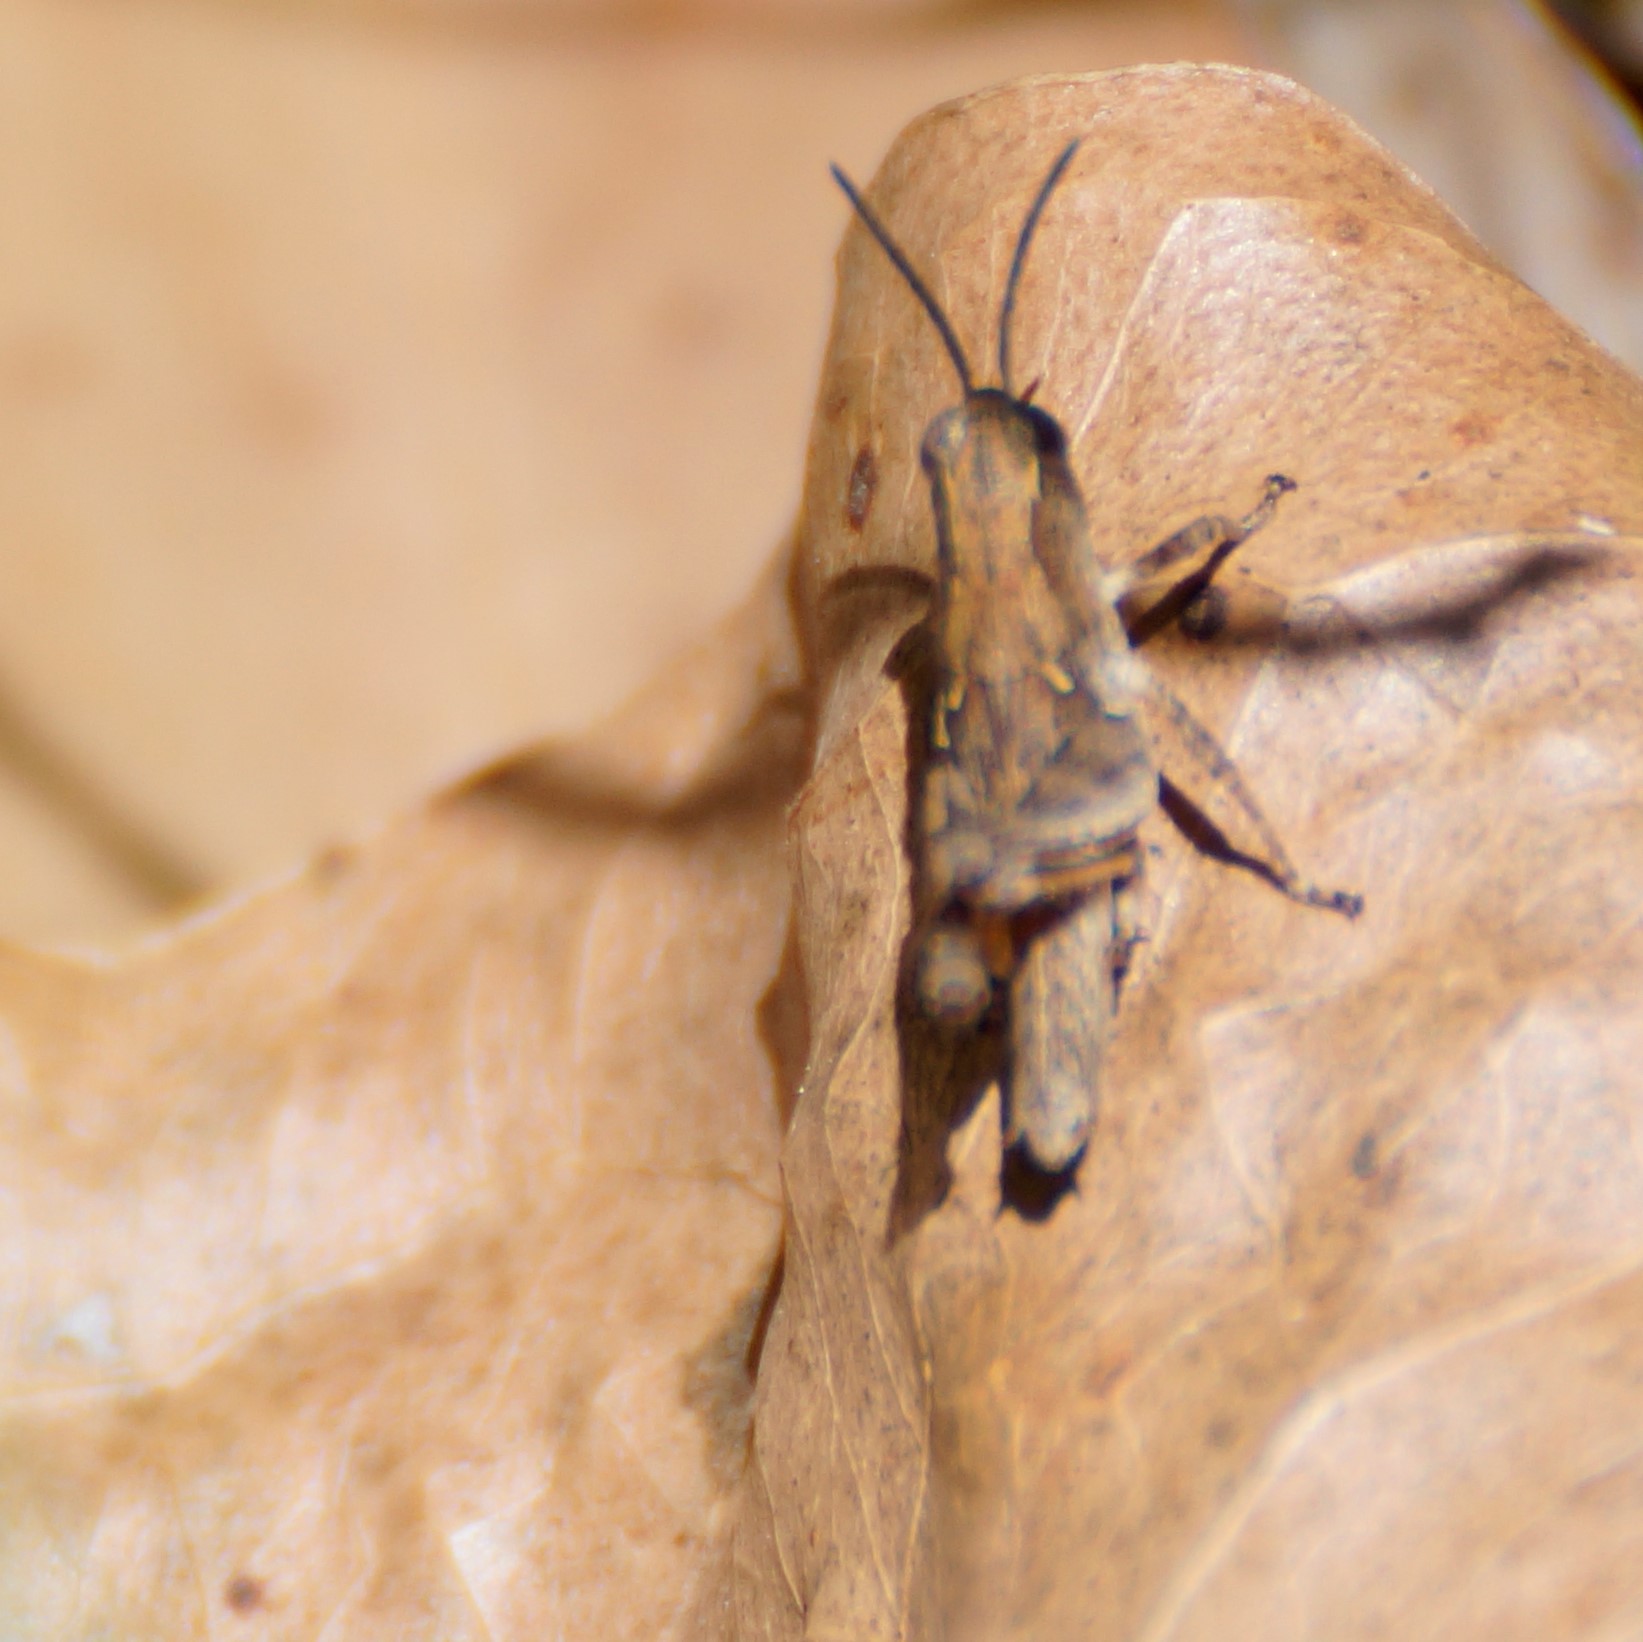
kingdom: Animalia
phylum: Arthropoda
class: Insecta
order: Orthoptera
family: Acrididae
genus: Phaulacridium
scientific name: Phaulacridium vittatum
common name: Wingless grasshopper
